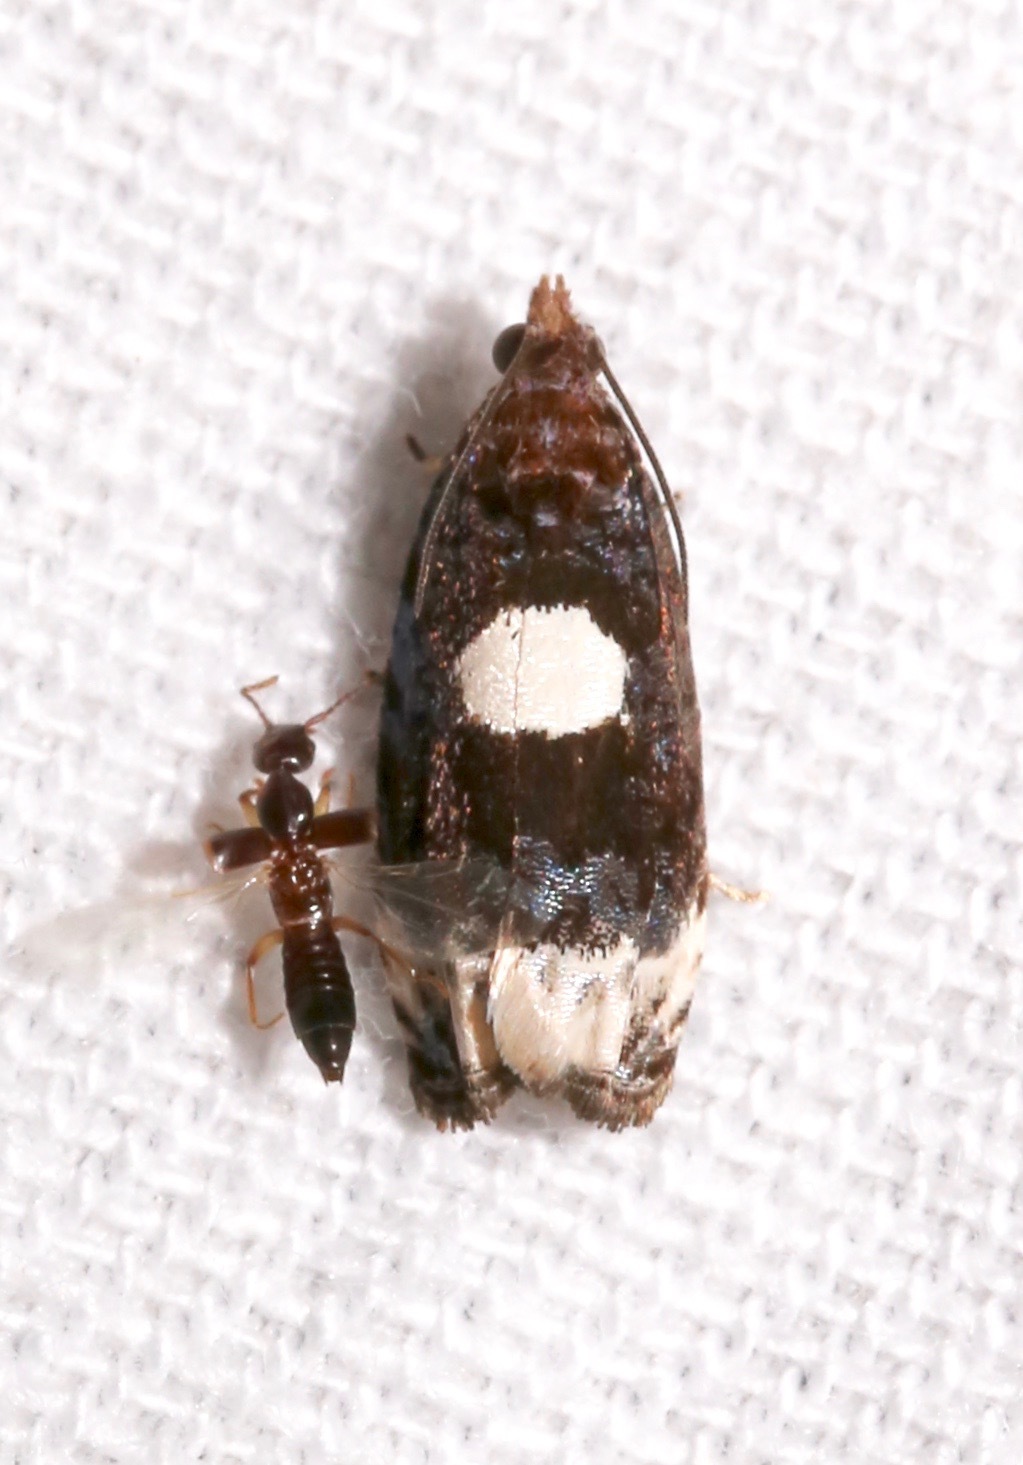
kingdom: Animalia
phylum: Arthropoda
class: Insecta
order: Lepidoptera
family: Tortricidae
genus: Olethreutes
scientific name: Olethreutes devotana
